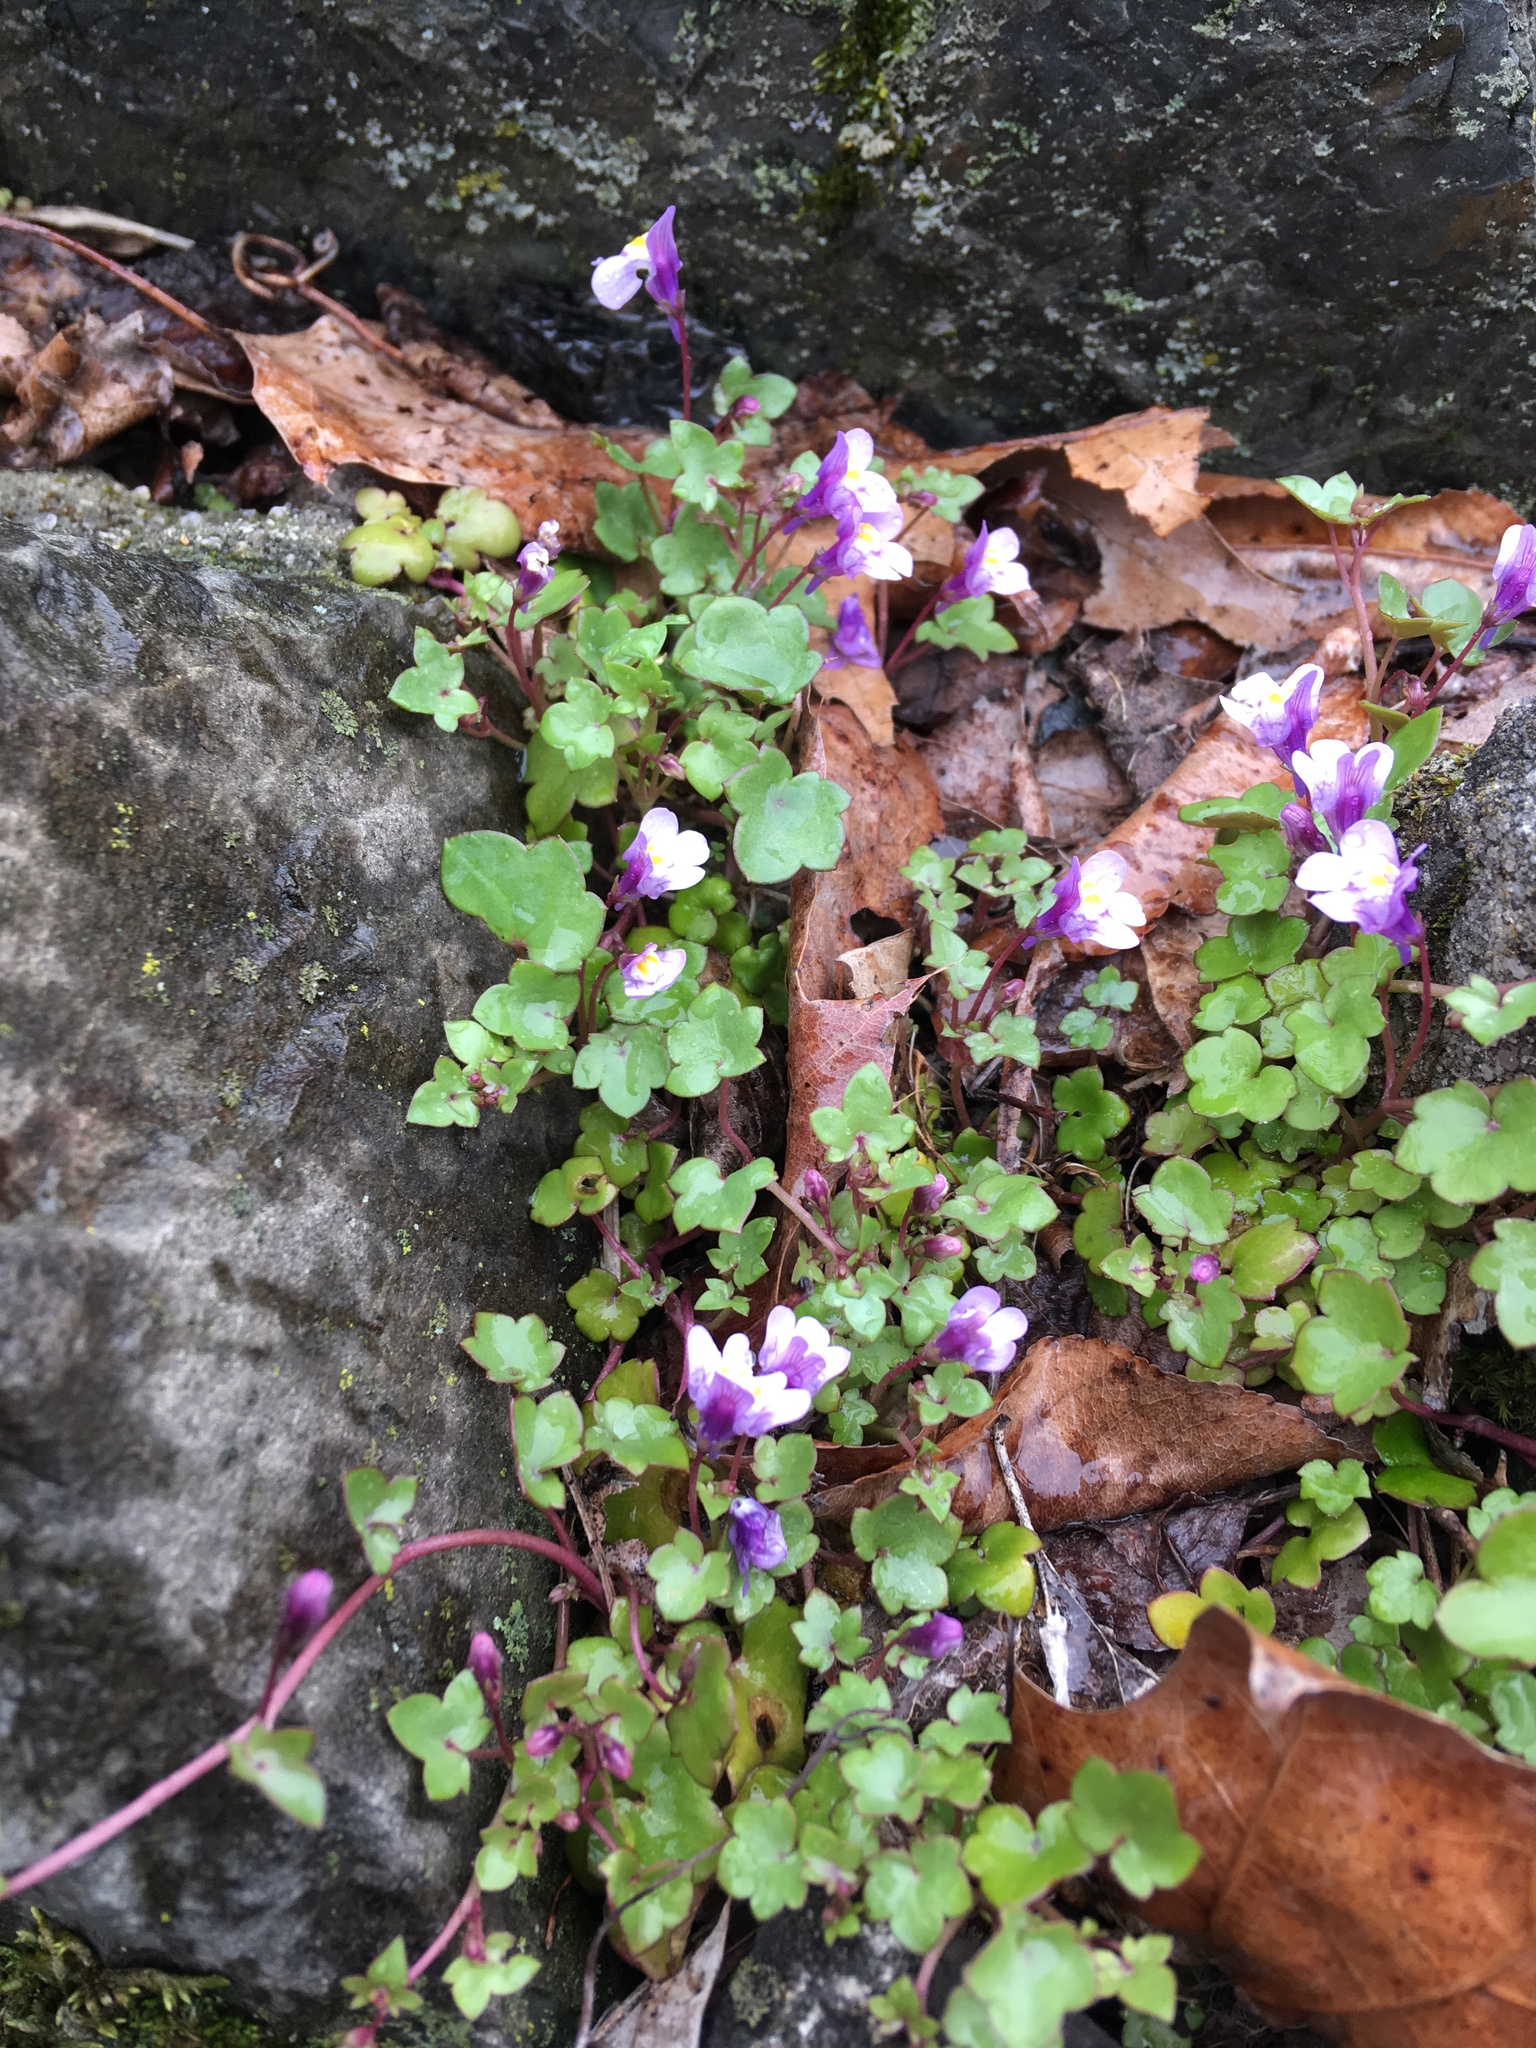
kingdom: Plantae
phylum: Tracheophyta
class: Magnoliopsida
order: Lamiales
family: Plantaginaceae
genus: Cymbalaria
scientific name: Cymbalaria muralis
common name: Ivy-leaved toadflax
